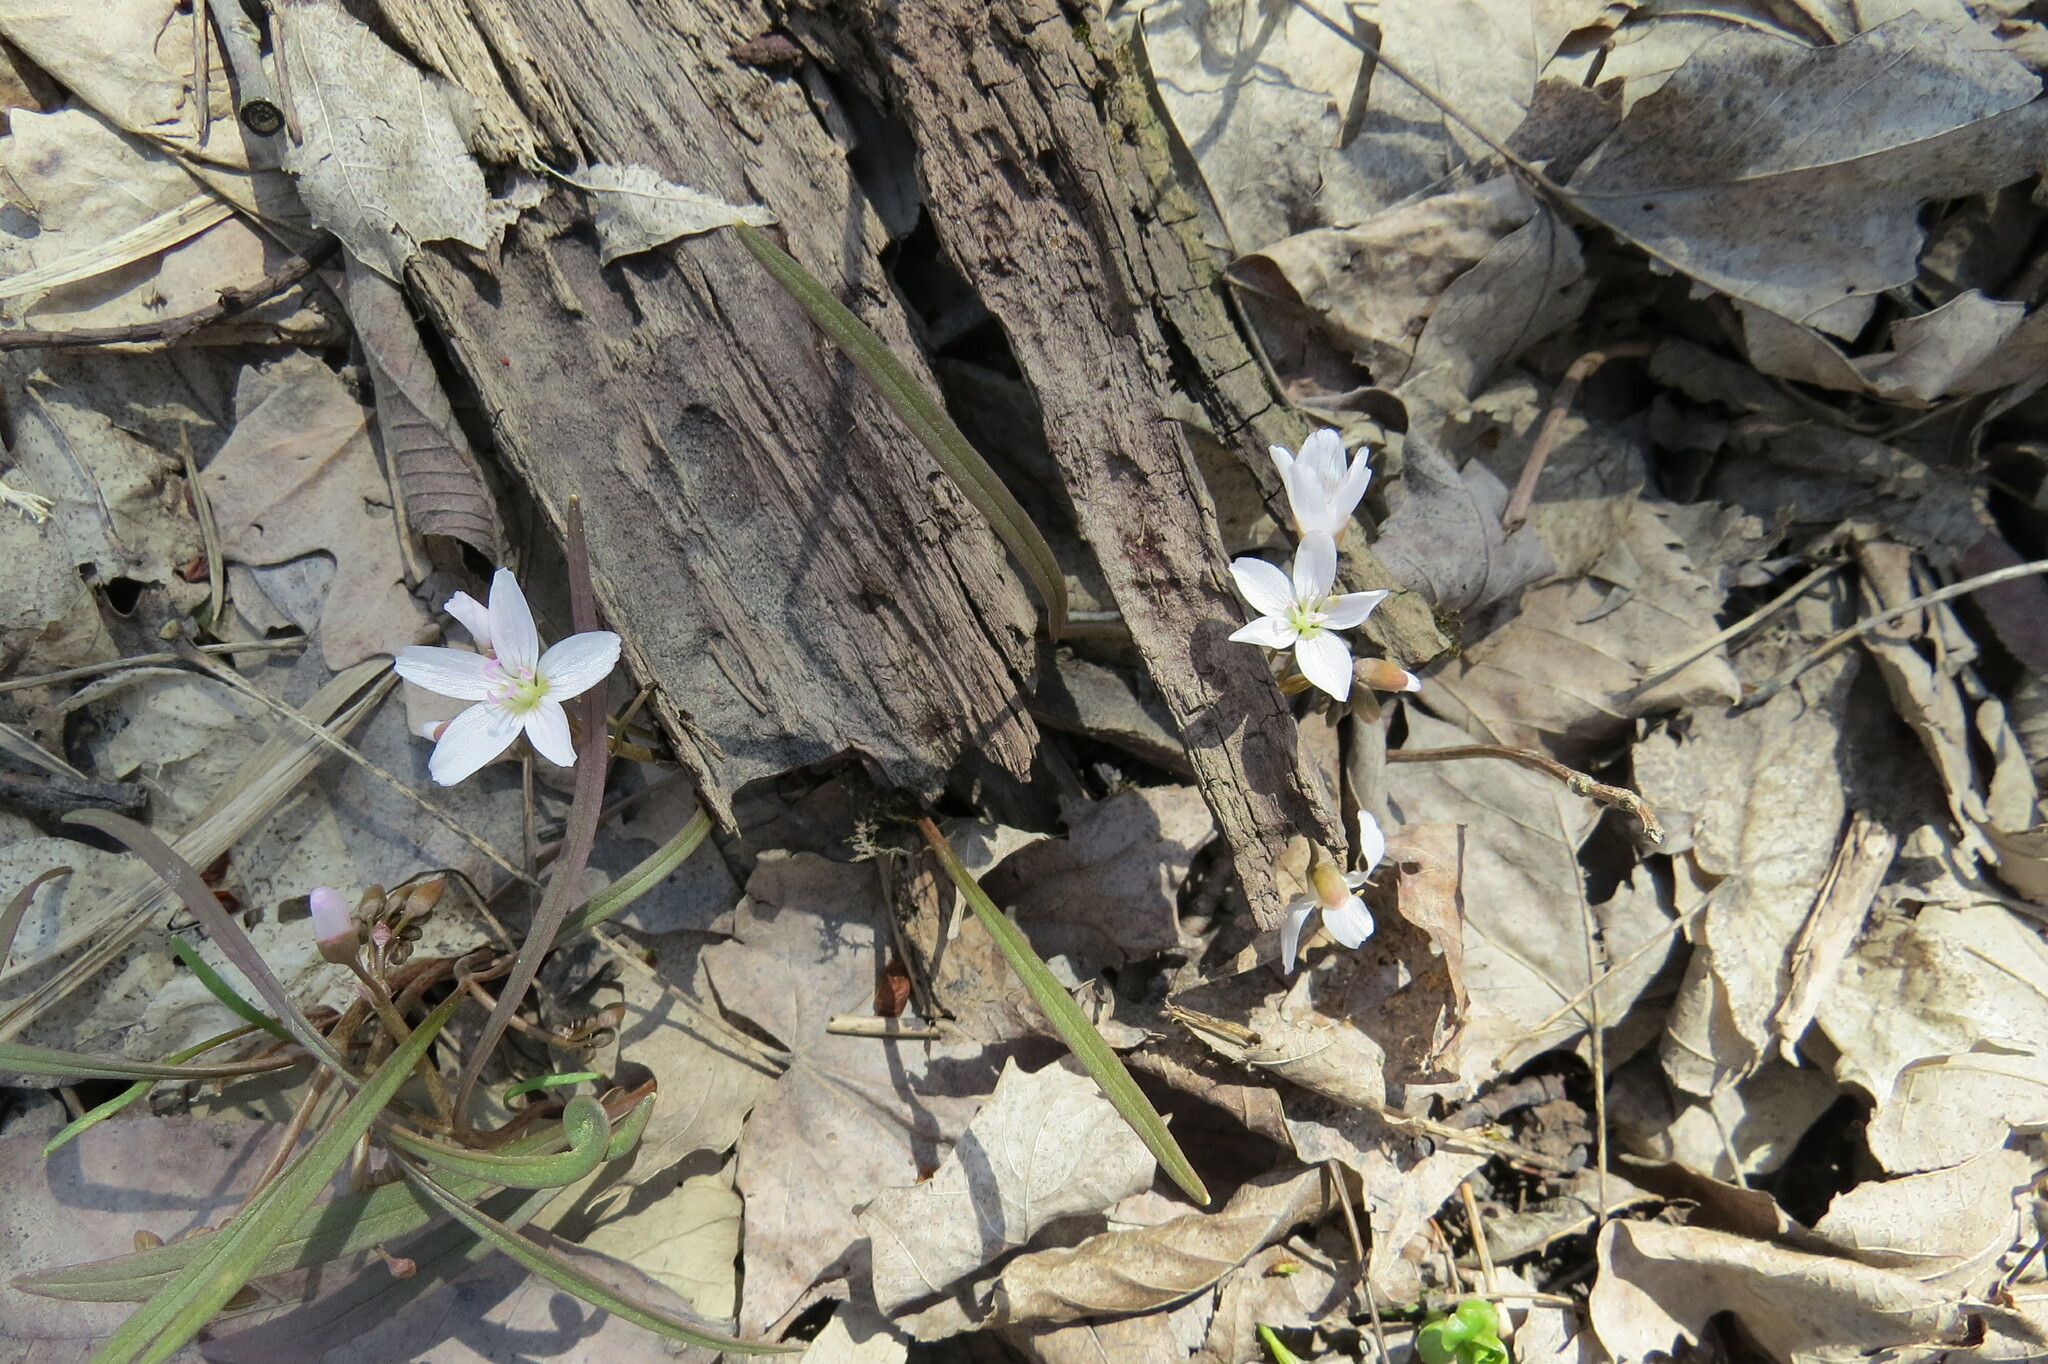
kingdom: Plantae
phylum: Tracheophyta
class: Magnoliopsida
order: Caryophyllales
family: Montiaceae
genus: Claytonia
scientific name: Claytonia virginica
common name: Virginia springbeauty
